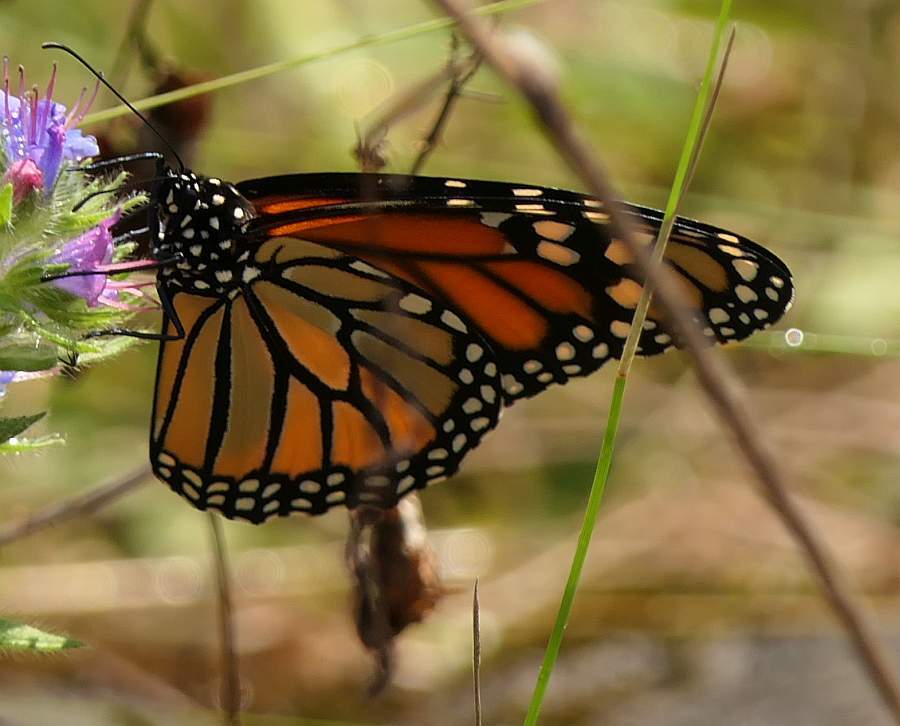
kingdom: Animalia
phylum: Arthropoda
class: Insecta
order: Lepidoptera
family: Nymphalidae
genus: Danaus
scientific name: Danaus plexippus
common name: Monarch
